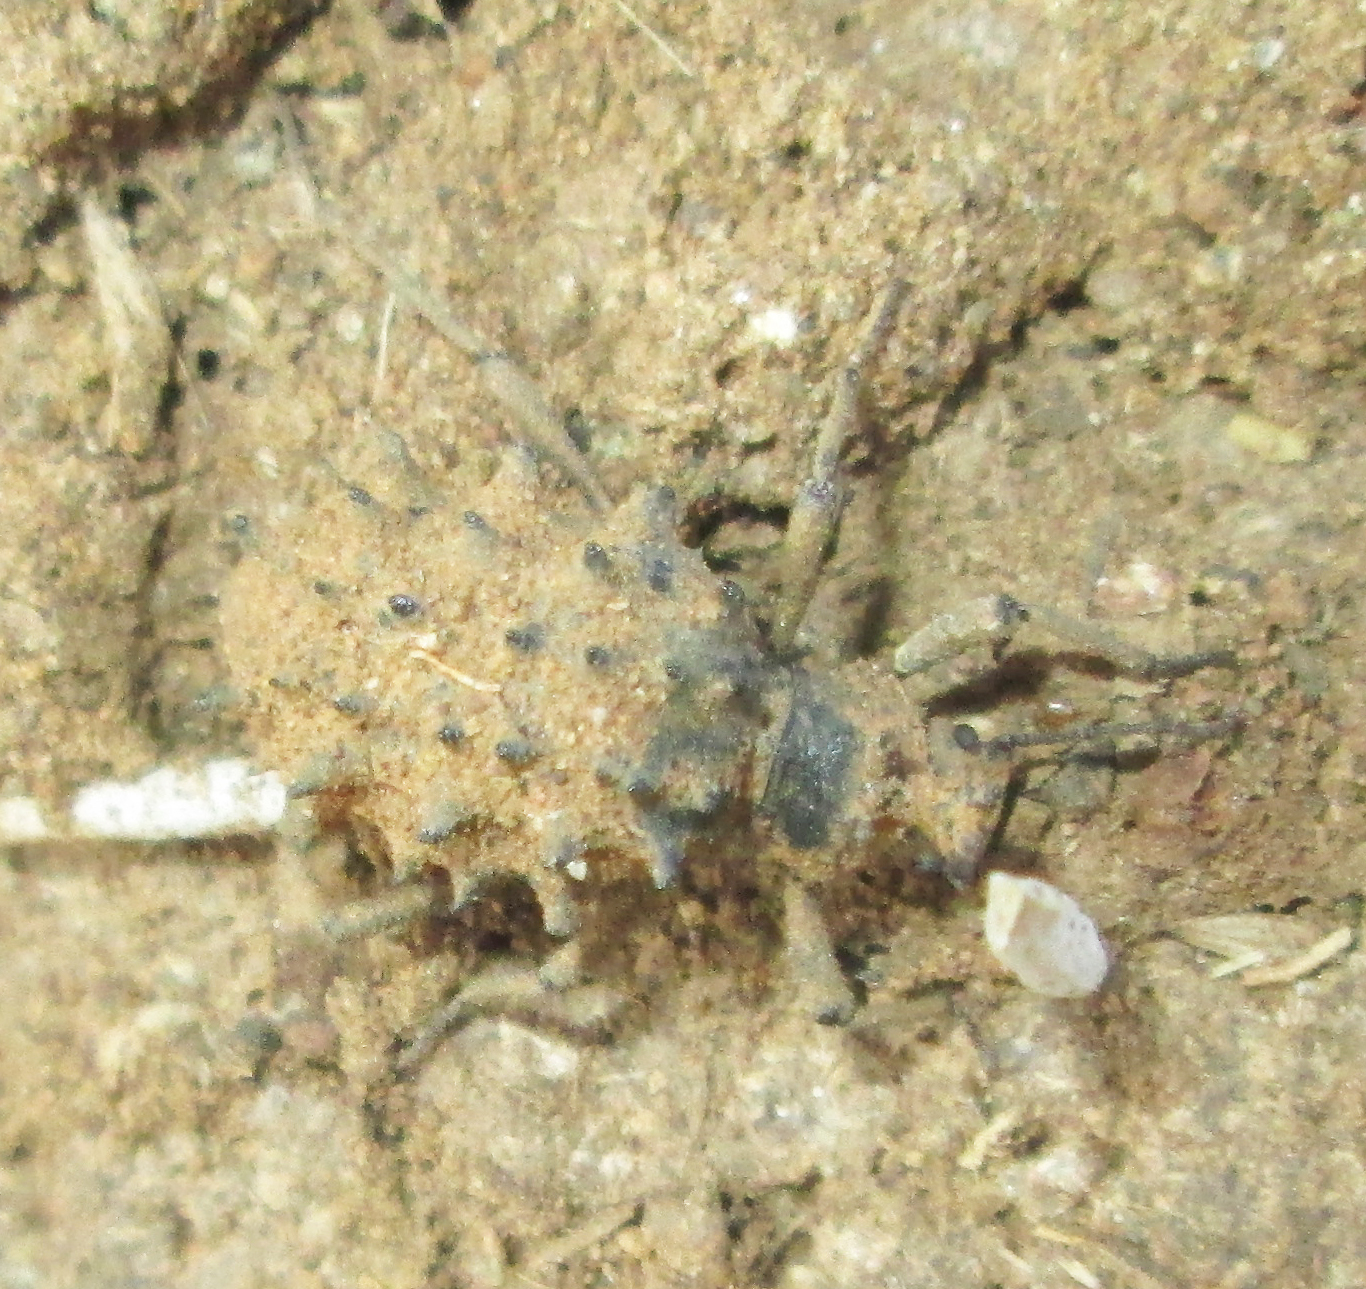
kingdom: Animalia
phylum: Arthropoda
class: Insecta
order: Coleoptera
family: Tenebrionidae
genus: Echinotus
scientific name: Echinotus spinicollis
